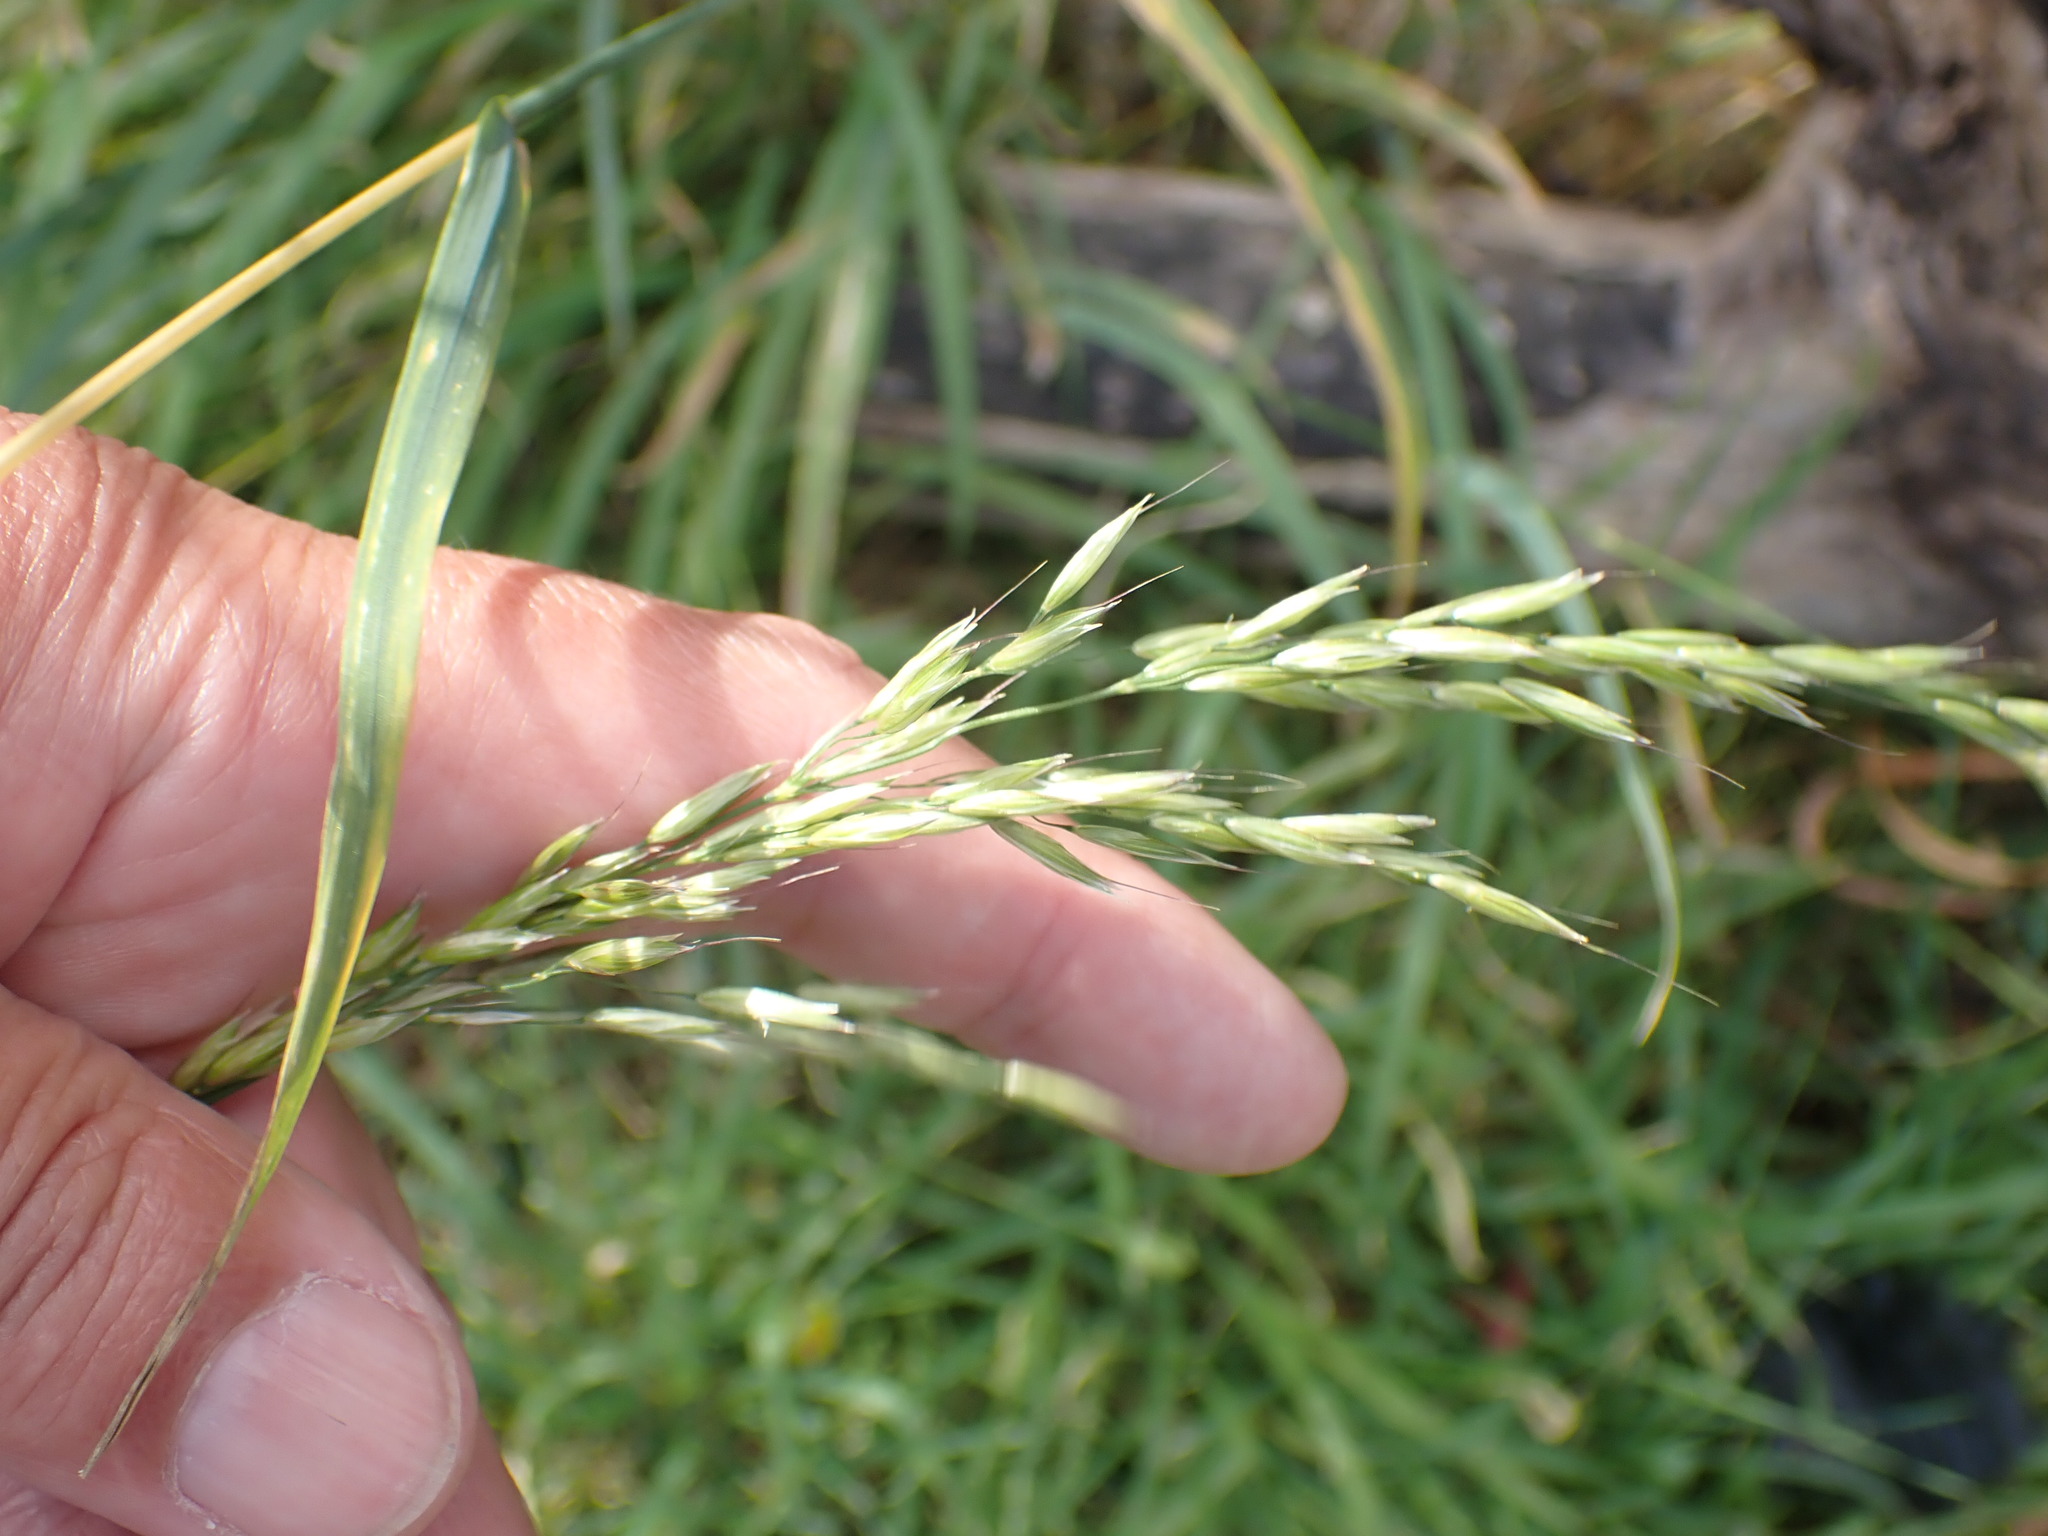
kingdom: Plantae
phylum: Tracheophyta
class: Liliopsida
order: Poales
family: Poaceae
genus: Arrhenatherum
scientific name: Arrhenatherum elatius
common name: Tall oatgrass
